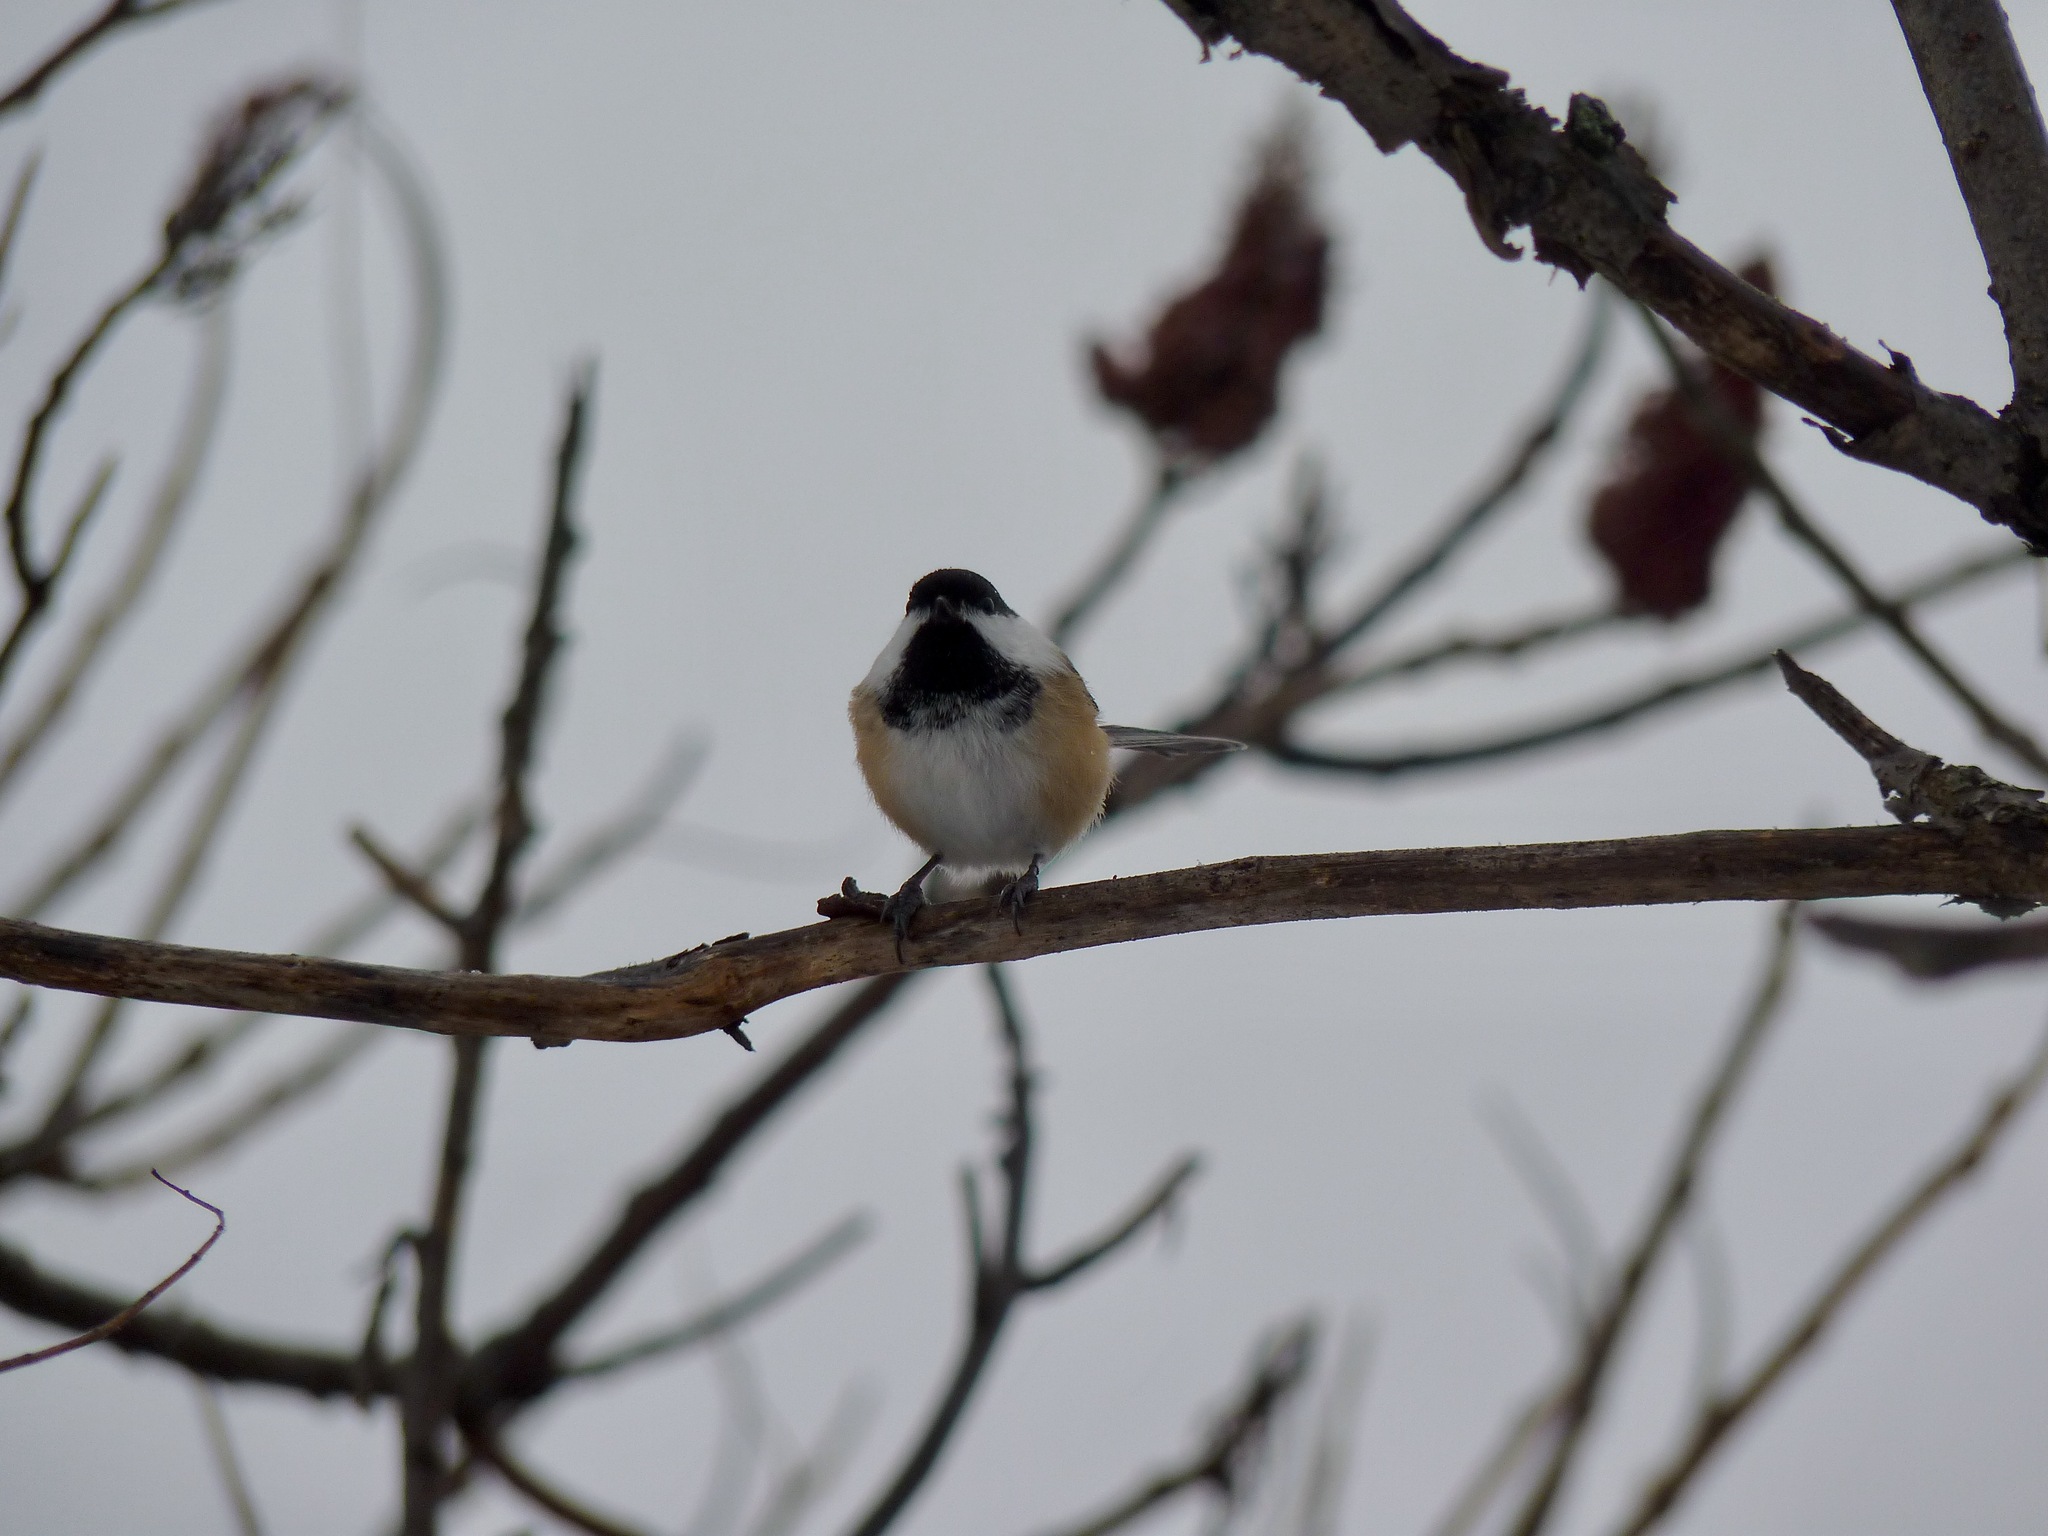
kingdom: Animalia
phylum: Chordata
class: Aves
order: Passeriformes
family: Paridae
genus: Poecile
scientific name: Poecile atricapillus
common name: Black-capped chickadee
